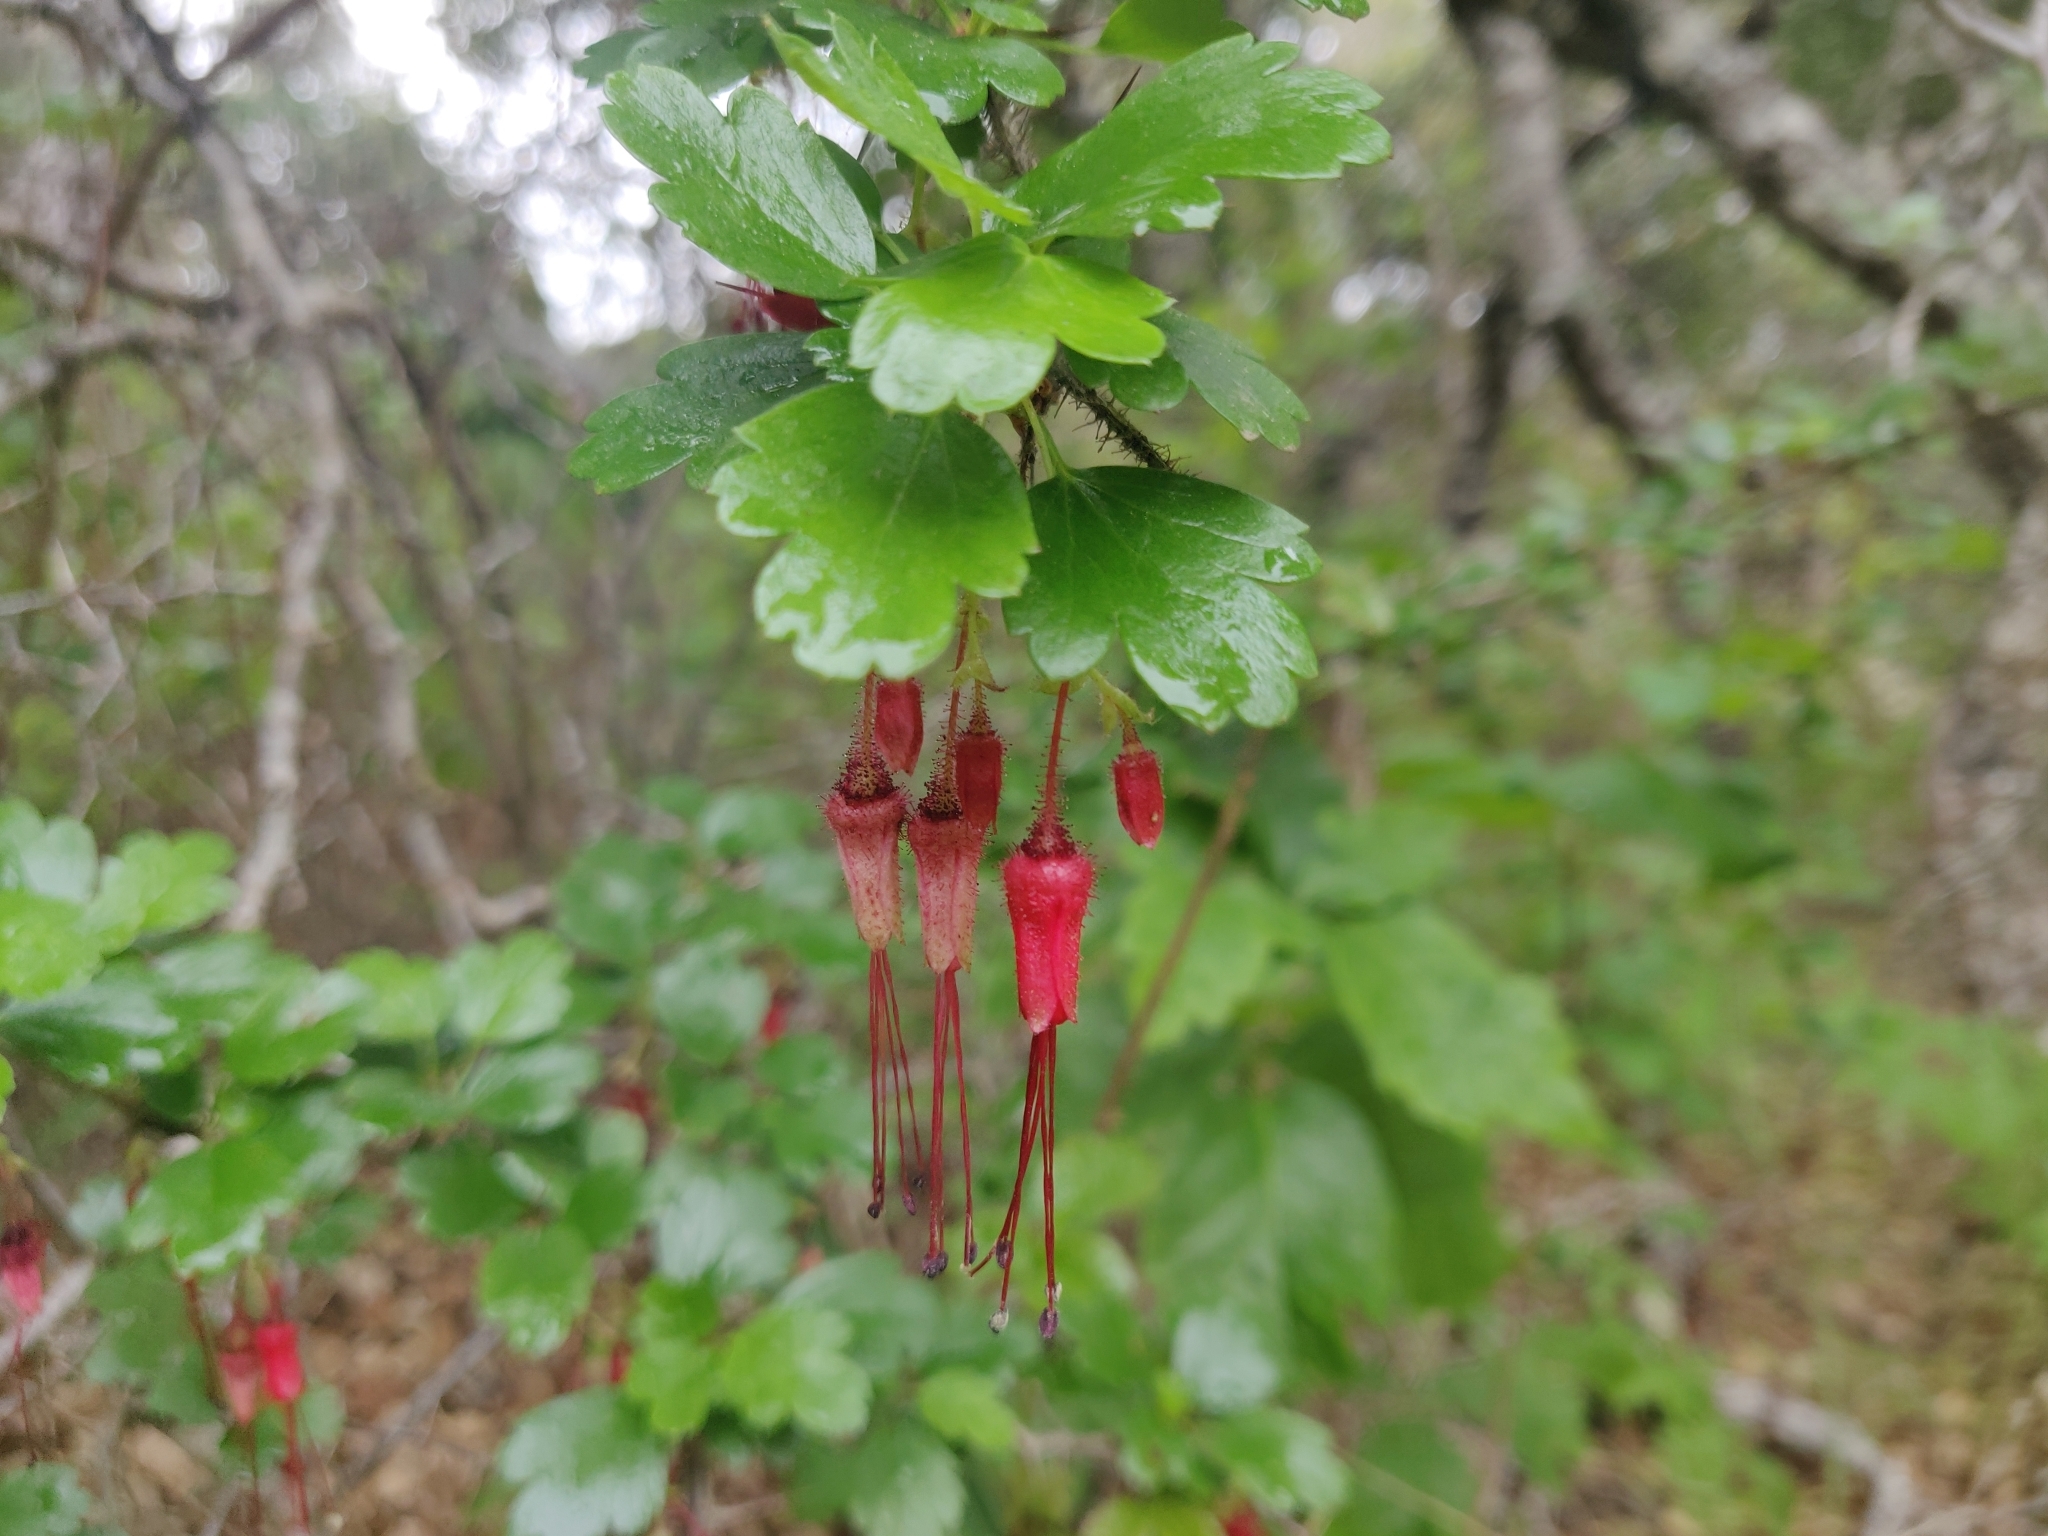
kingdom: Plantae
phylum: Tracheophyta
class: Magnoliopsida
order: Saxifragales
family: Grossulariaceae
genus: Ribes
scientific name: Ribes speciosum
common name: Fuchsia-flower gooseberry
